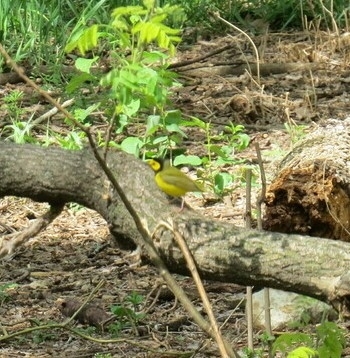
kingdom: Animalia
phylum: Chordata
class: Aves
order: Passeriformes
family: Parulidae
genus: Setophaga
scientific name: Setophaga citrina
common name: Hooded warbler
